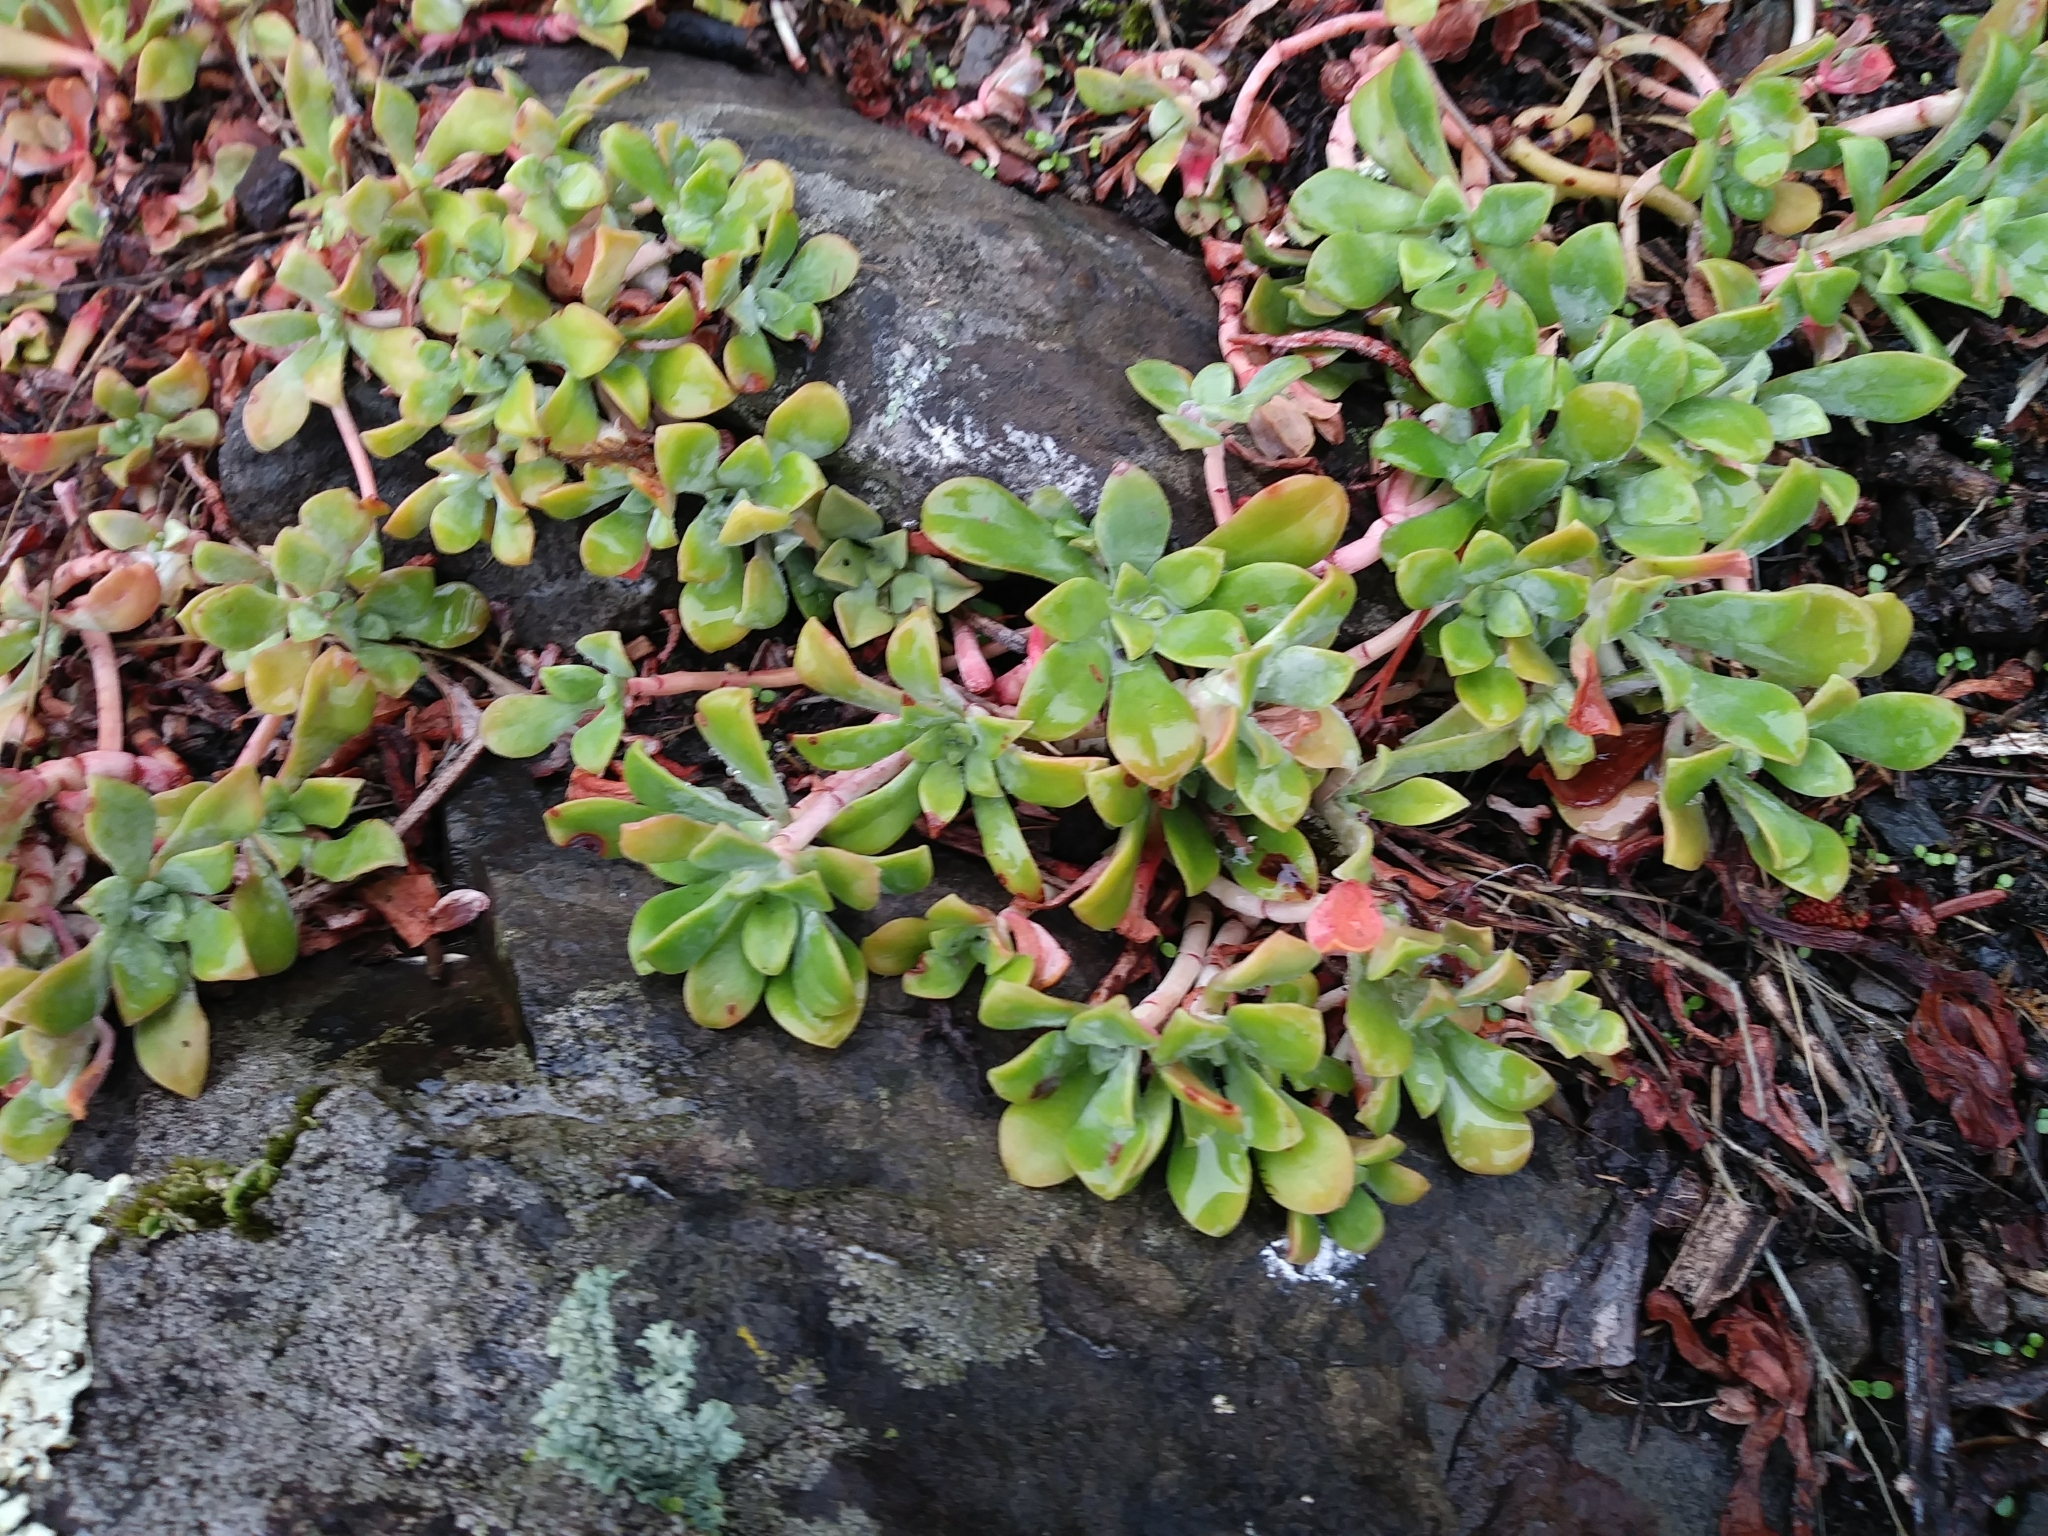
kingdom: Plantae
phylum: Tracheophyta
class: Magnoliopsida
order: Saxifragales
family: Crassulaceae
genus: Sedum
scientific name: Sedum spathulifolium
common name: Colorado stonecrop
